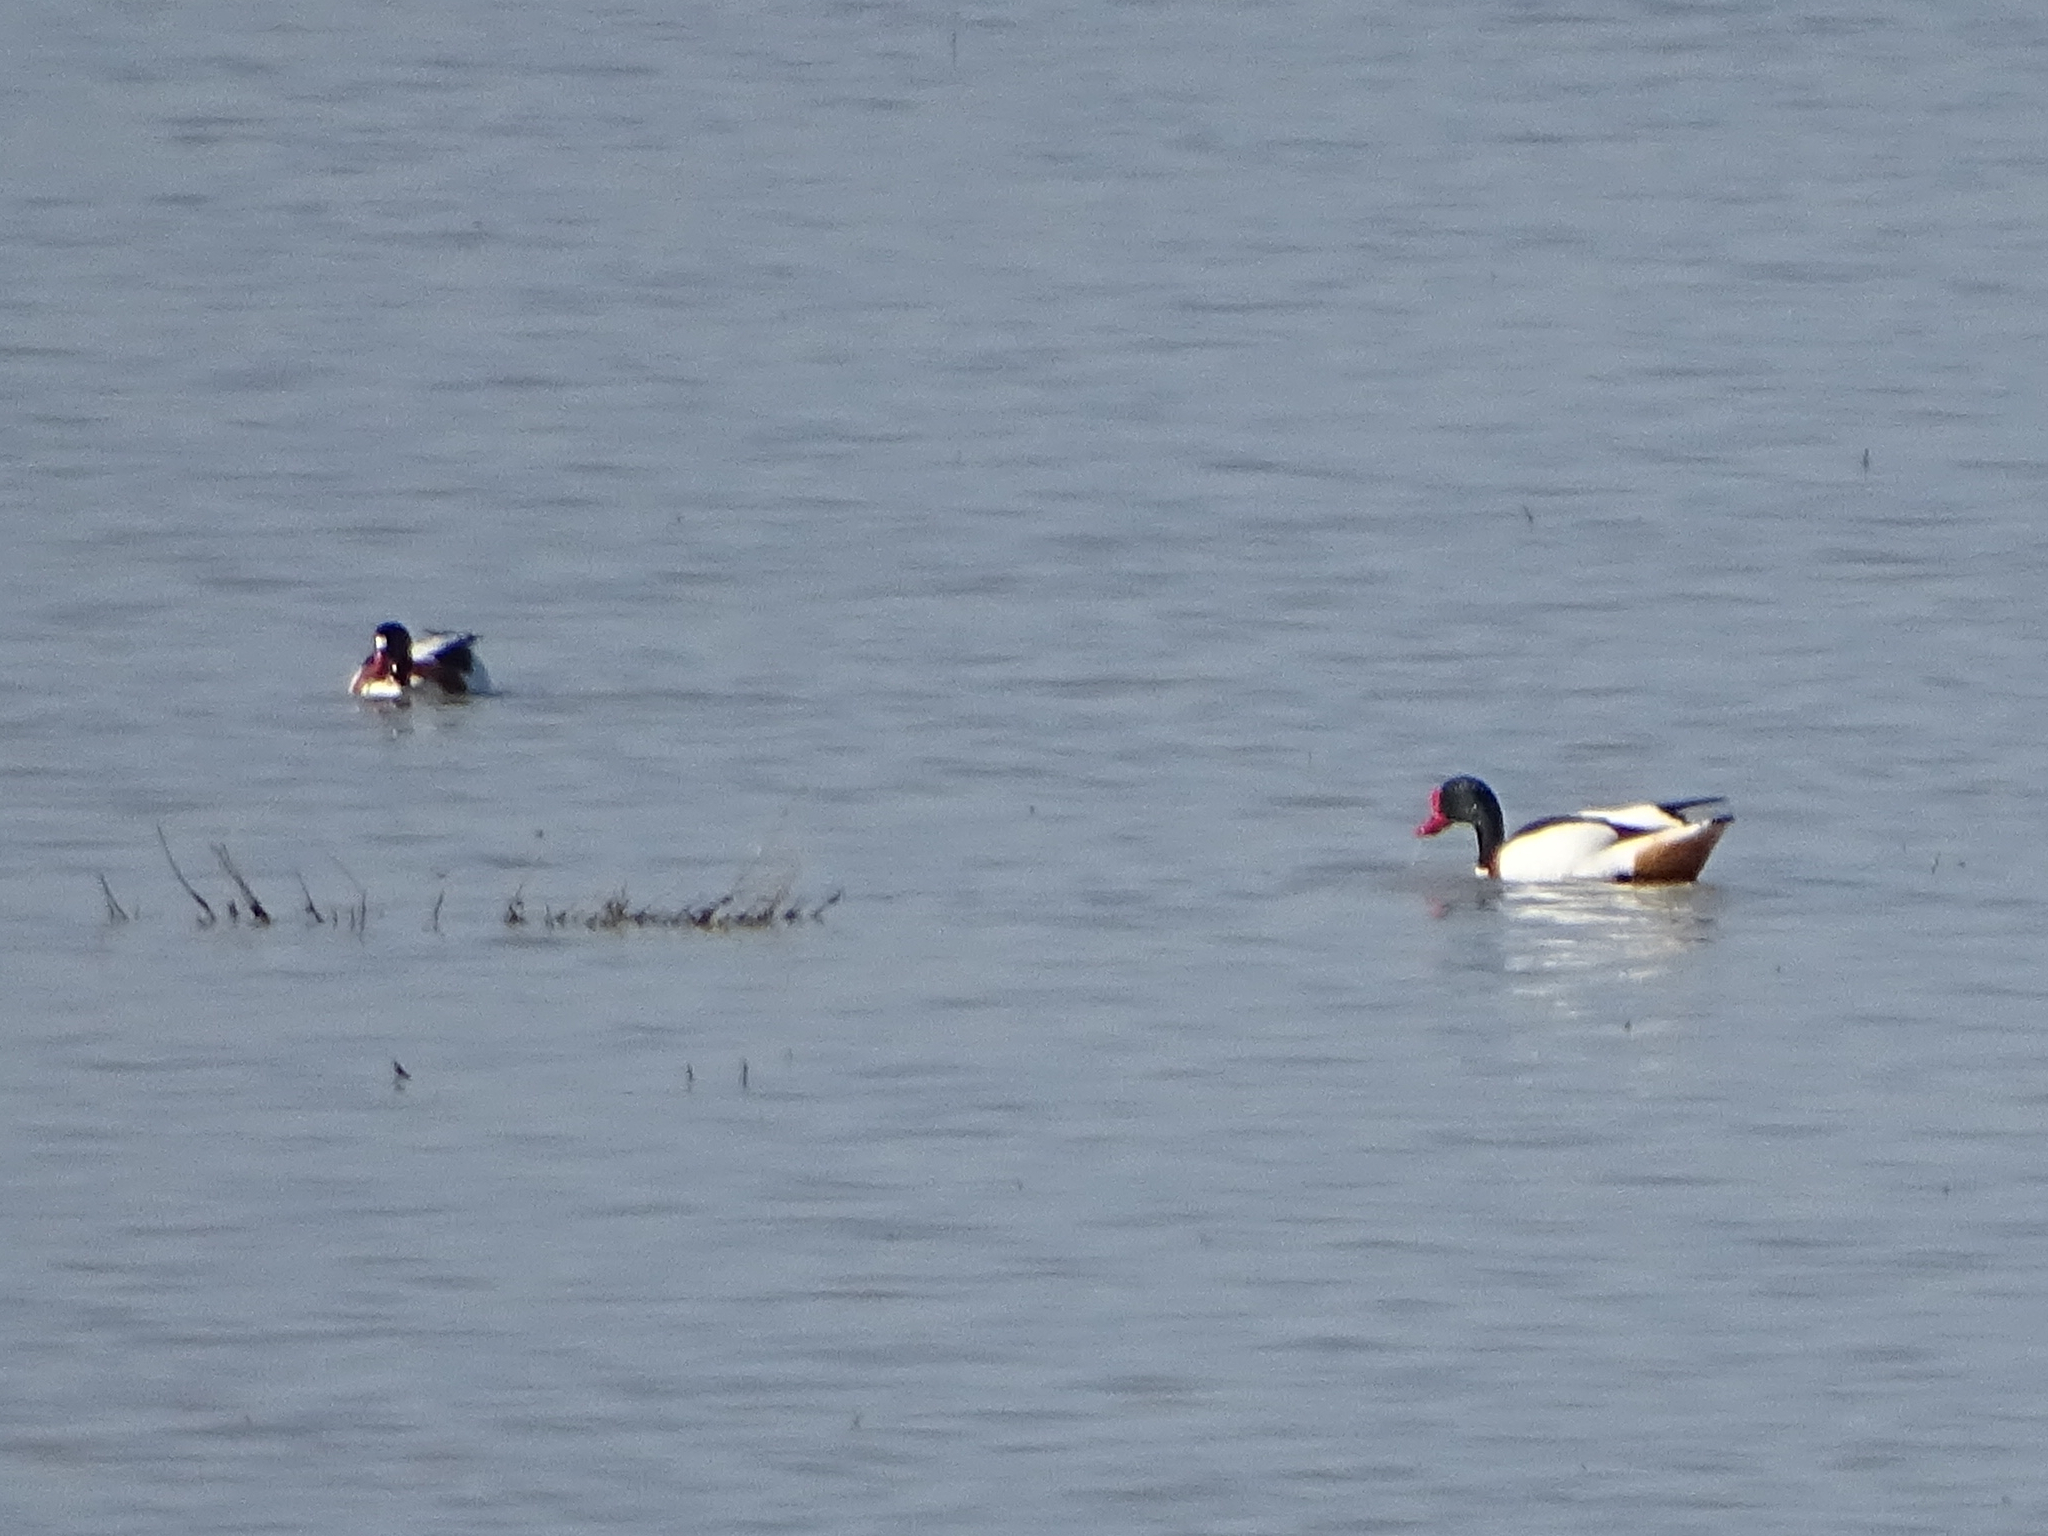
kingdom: Animalia
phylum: Chordata
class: Aves
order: Anseriformes
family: Anatidae
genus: Tadorna
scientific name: Tadorna tadorna
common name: Common shelduck
